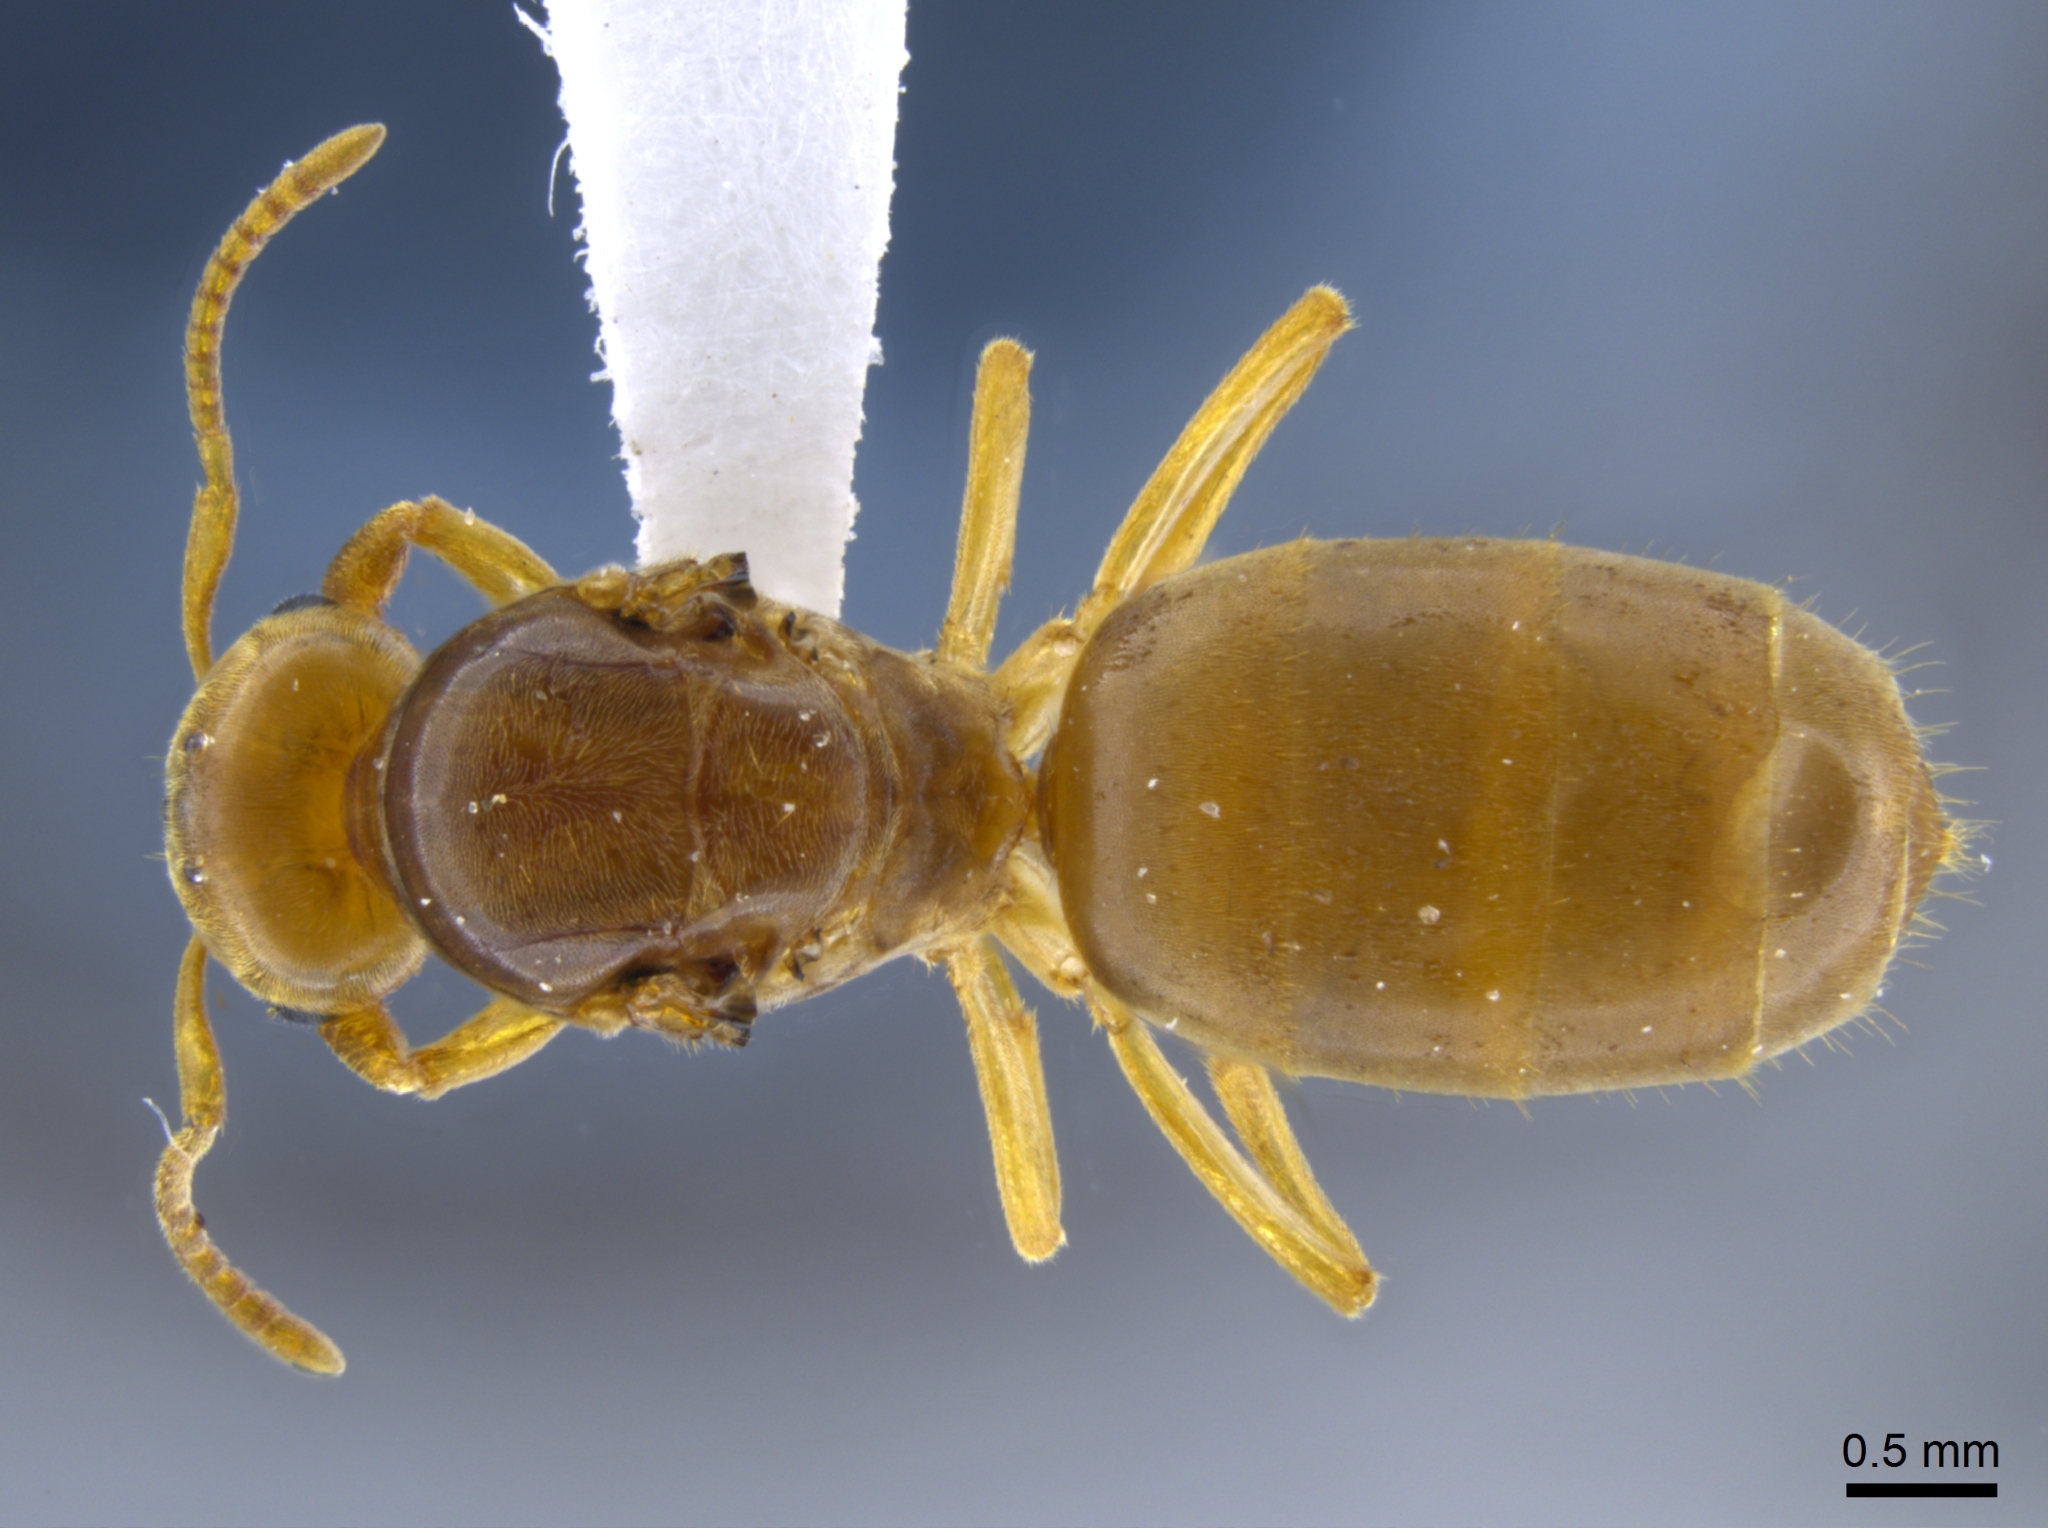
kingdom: Animalia
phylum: Arthropoda
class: Insecta
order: Hymenoptera
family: Formicidae
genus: Lasius
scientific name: Lasius
